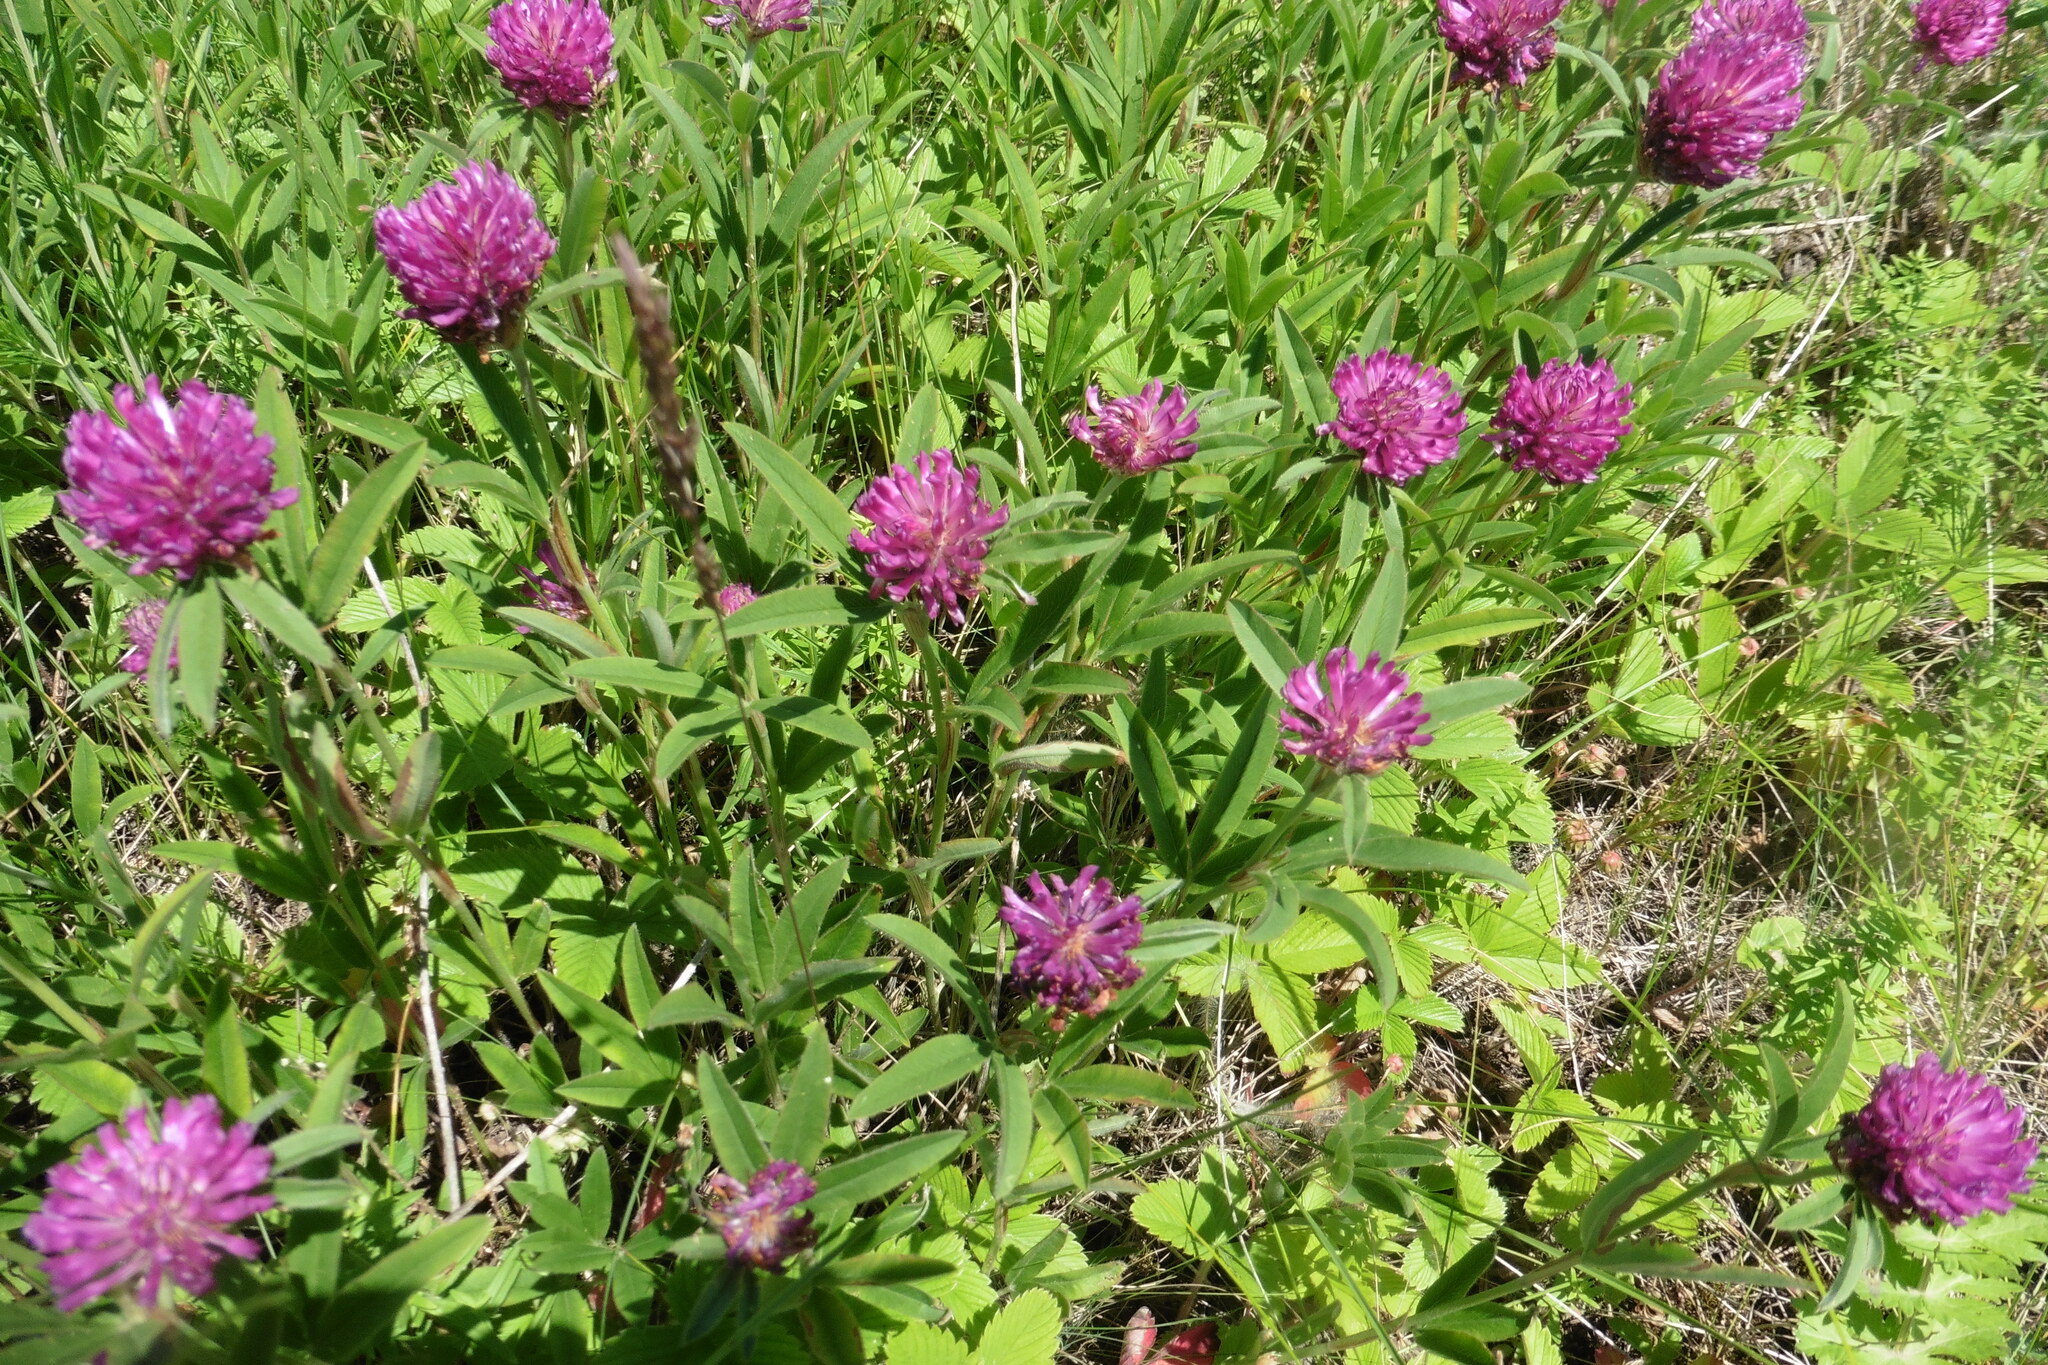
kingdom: Plantae
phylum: Tracheophyta
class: Magnoliopsida
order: Fabales
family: Fabaceae
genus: Trifolium
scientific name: Trifolium alpestre
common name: Owl-head clover
